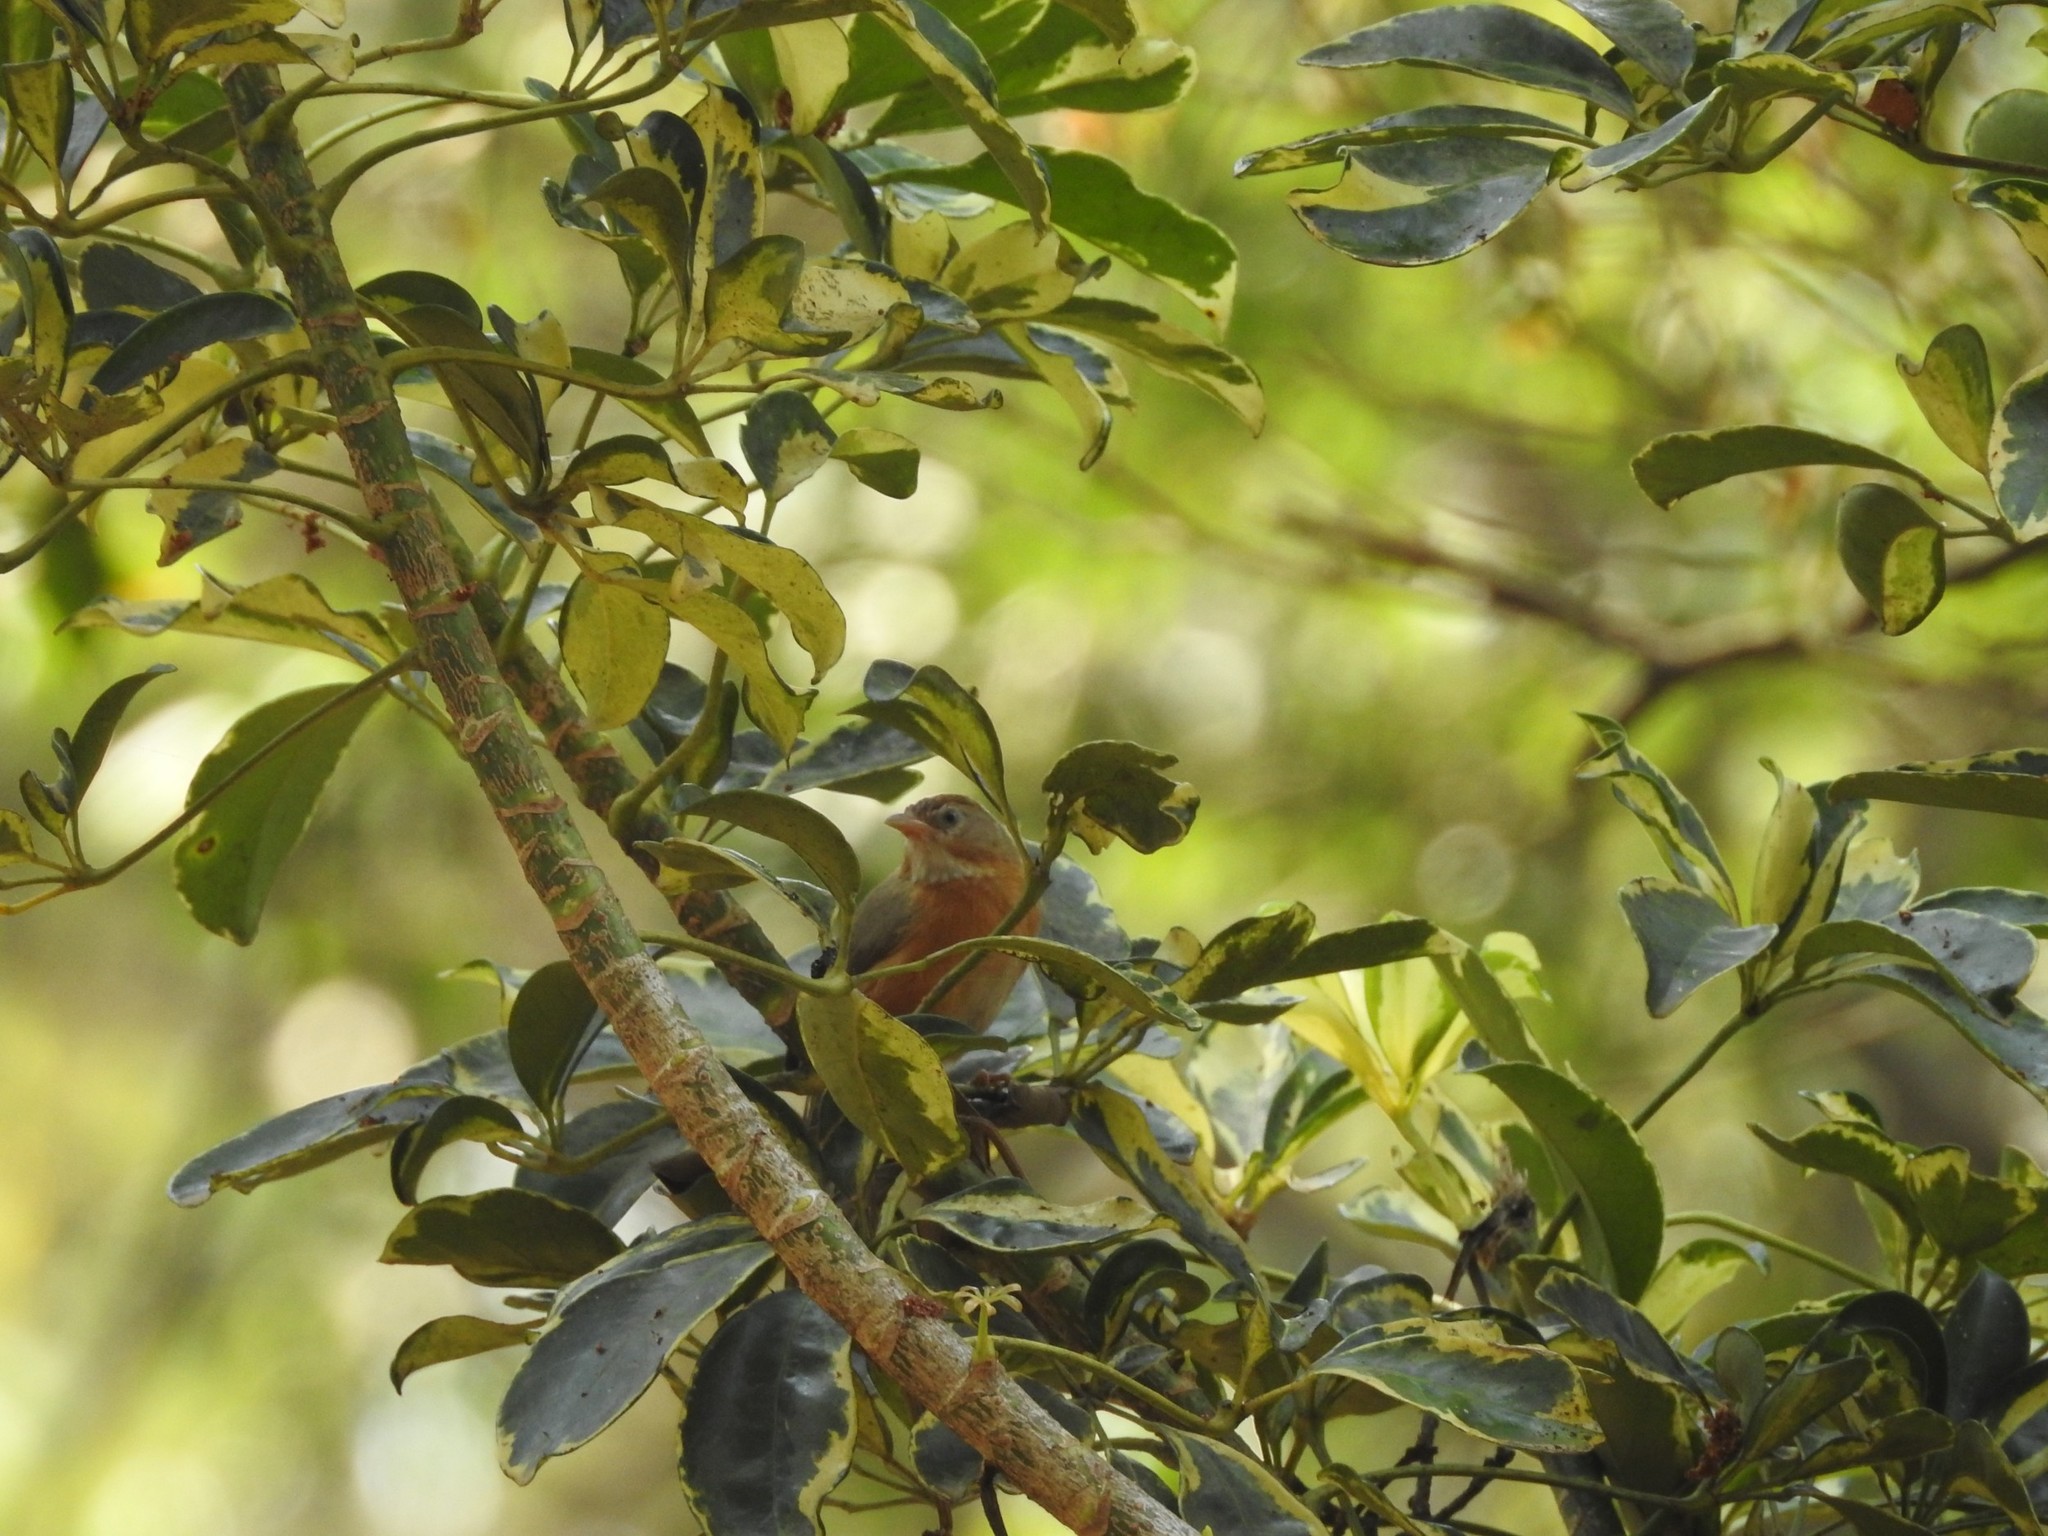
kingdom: Animalia
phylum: Chordata
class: Aves
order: Passeriformes
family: Timaliidae
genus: Dumetia
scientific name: Dumetia hyperythra
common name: Tawny-bellied babbler
